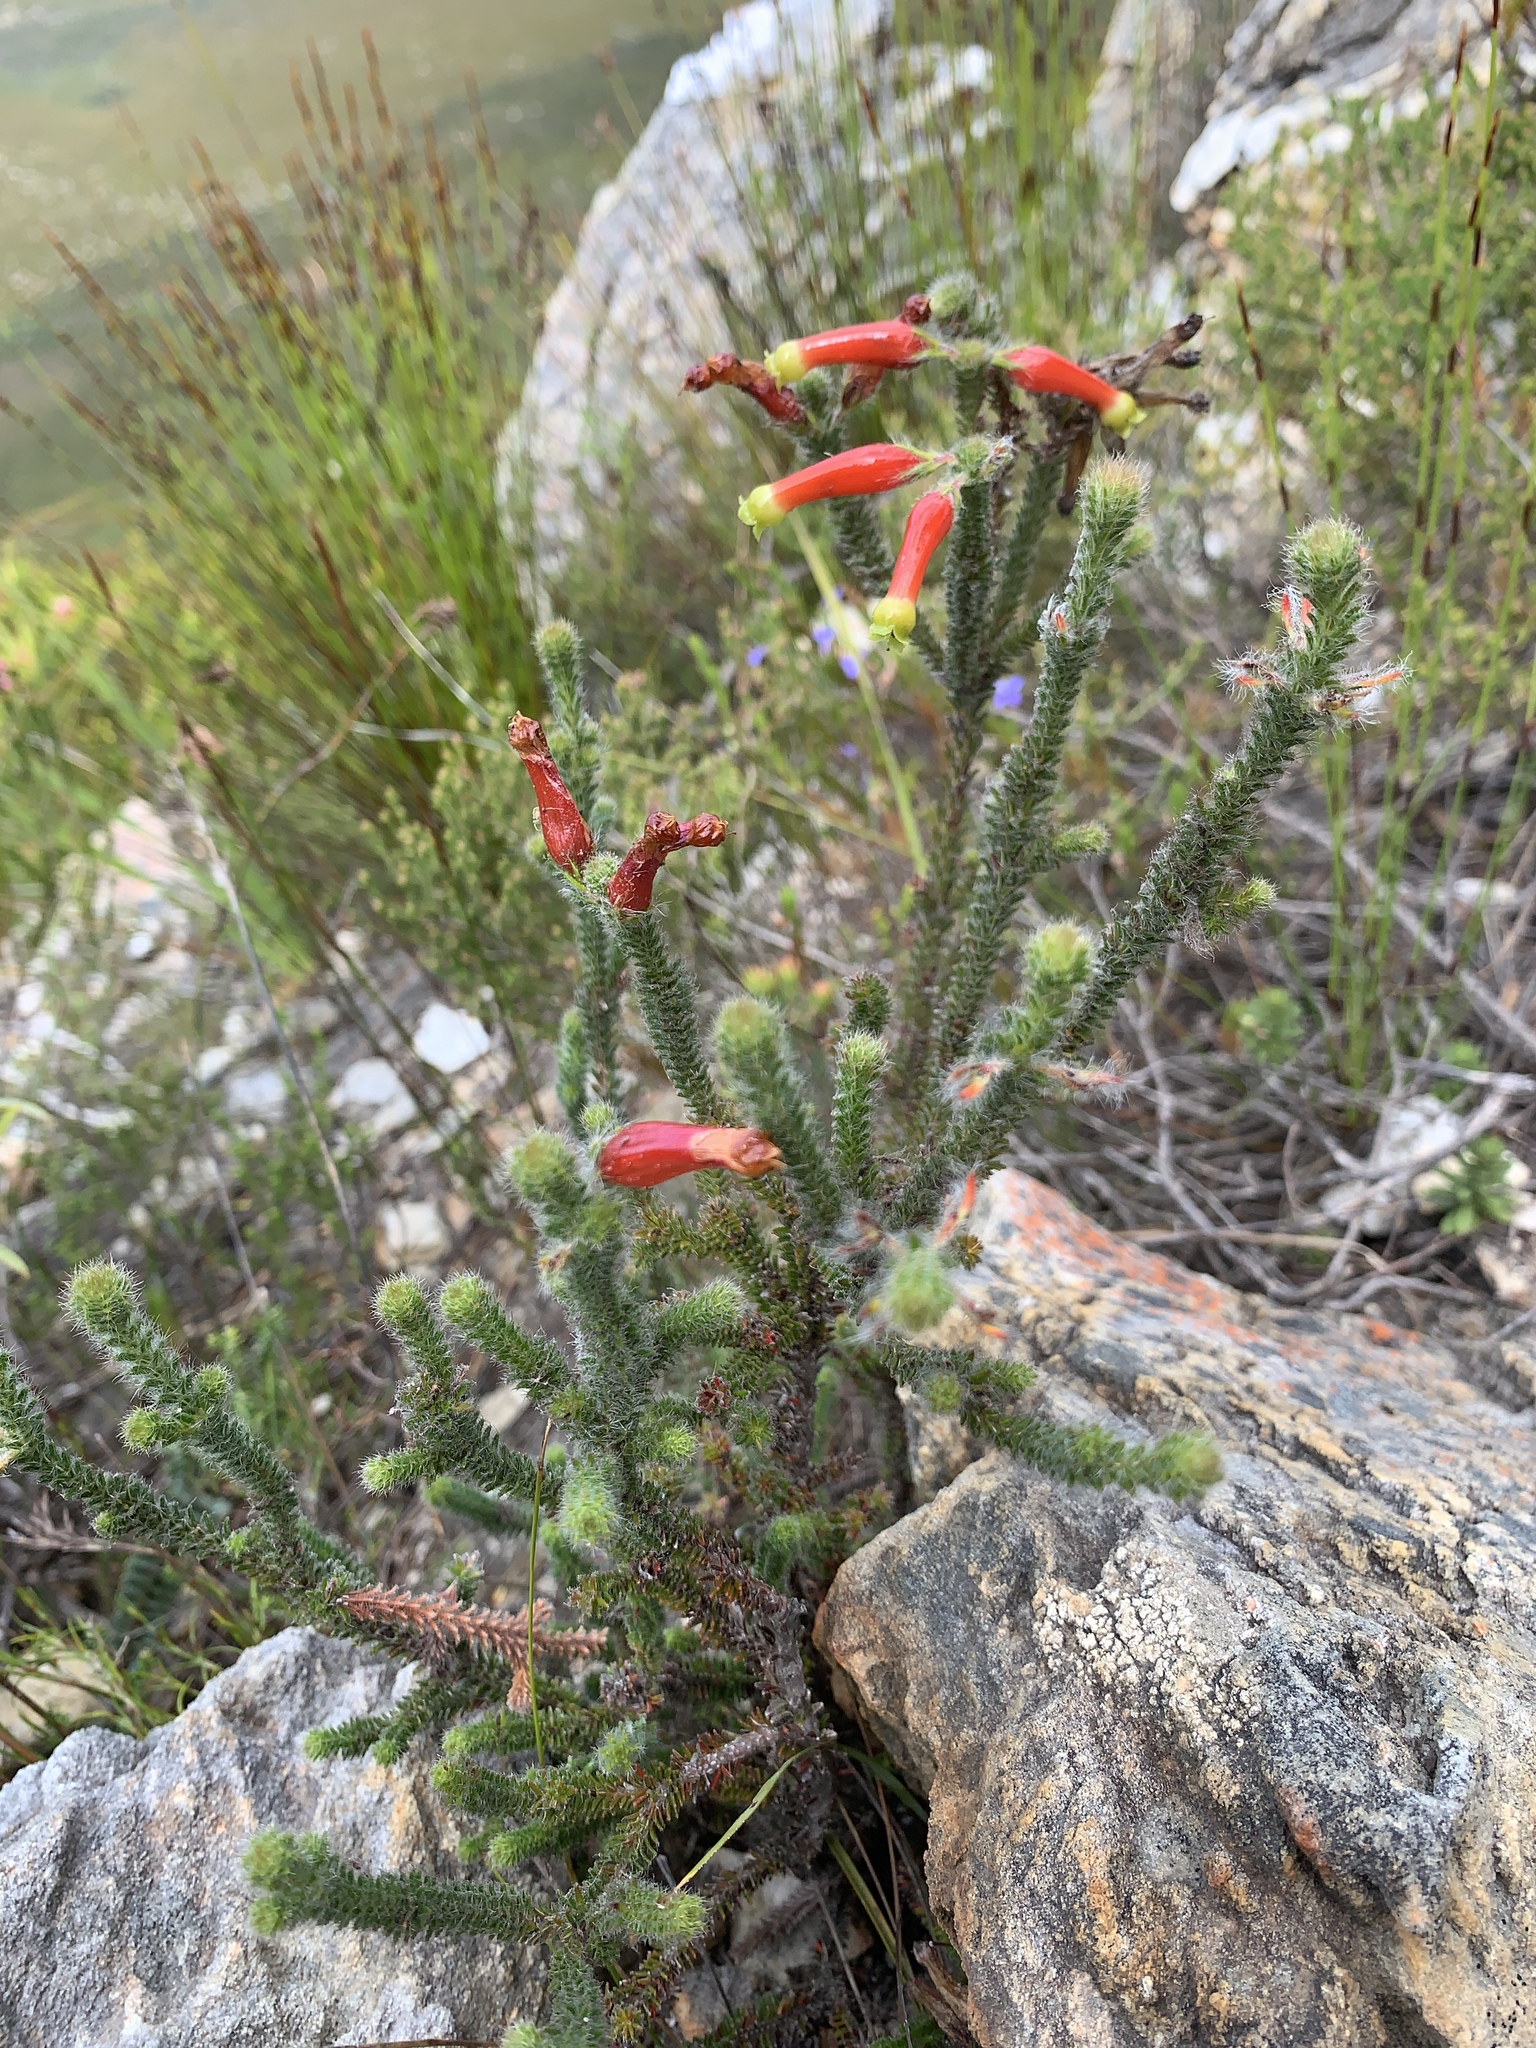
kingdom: Plantae
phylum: Tracheophyta
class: Magnoliopsida
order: Ericales
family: Ericaceae
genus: Erica
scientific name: Erica massonii
